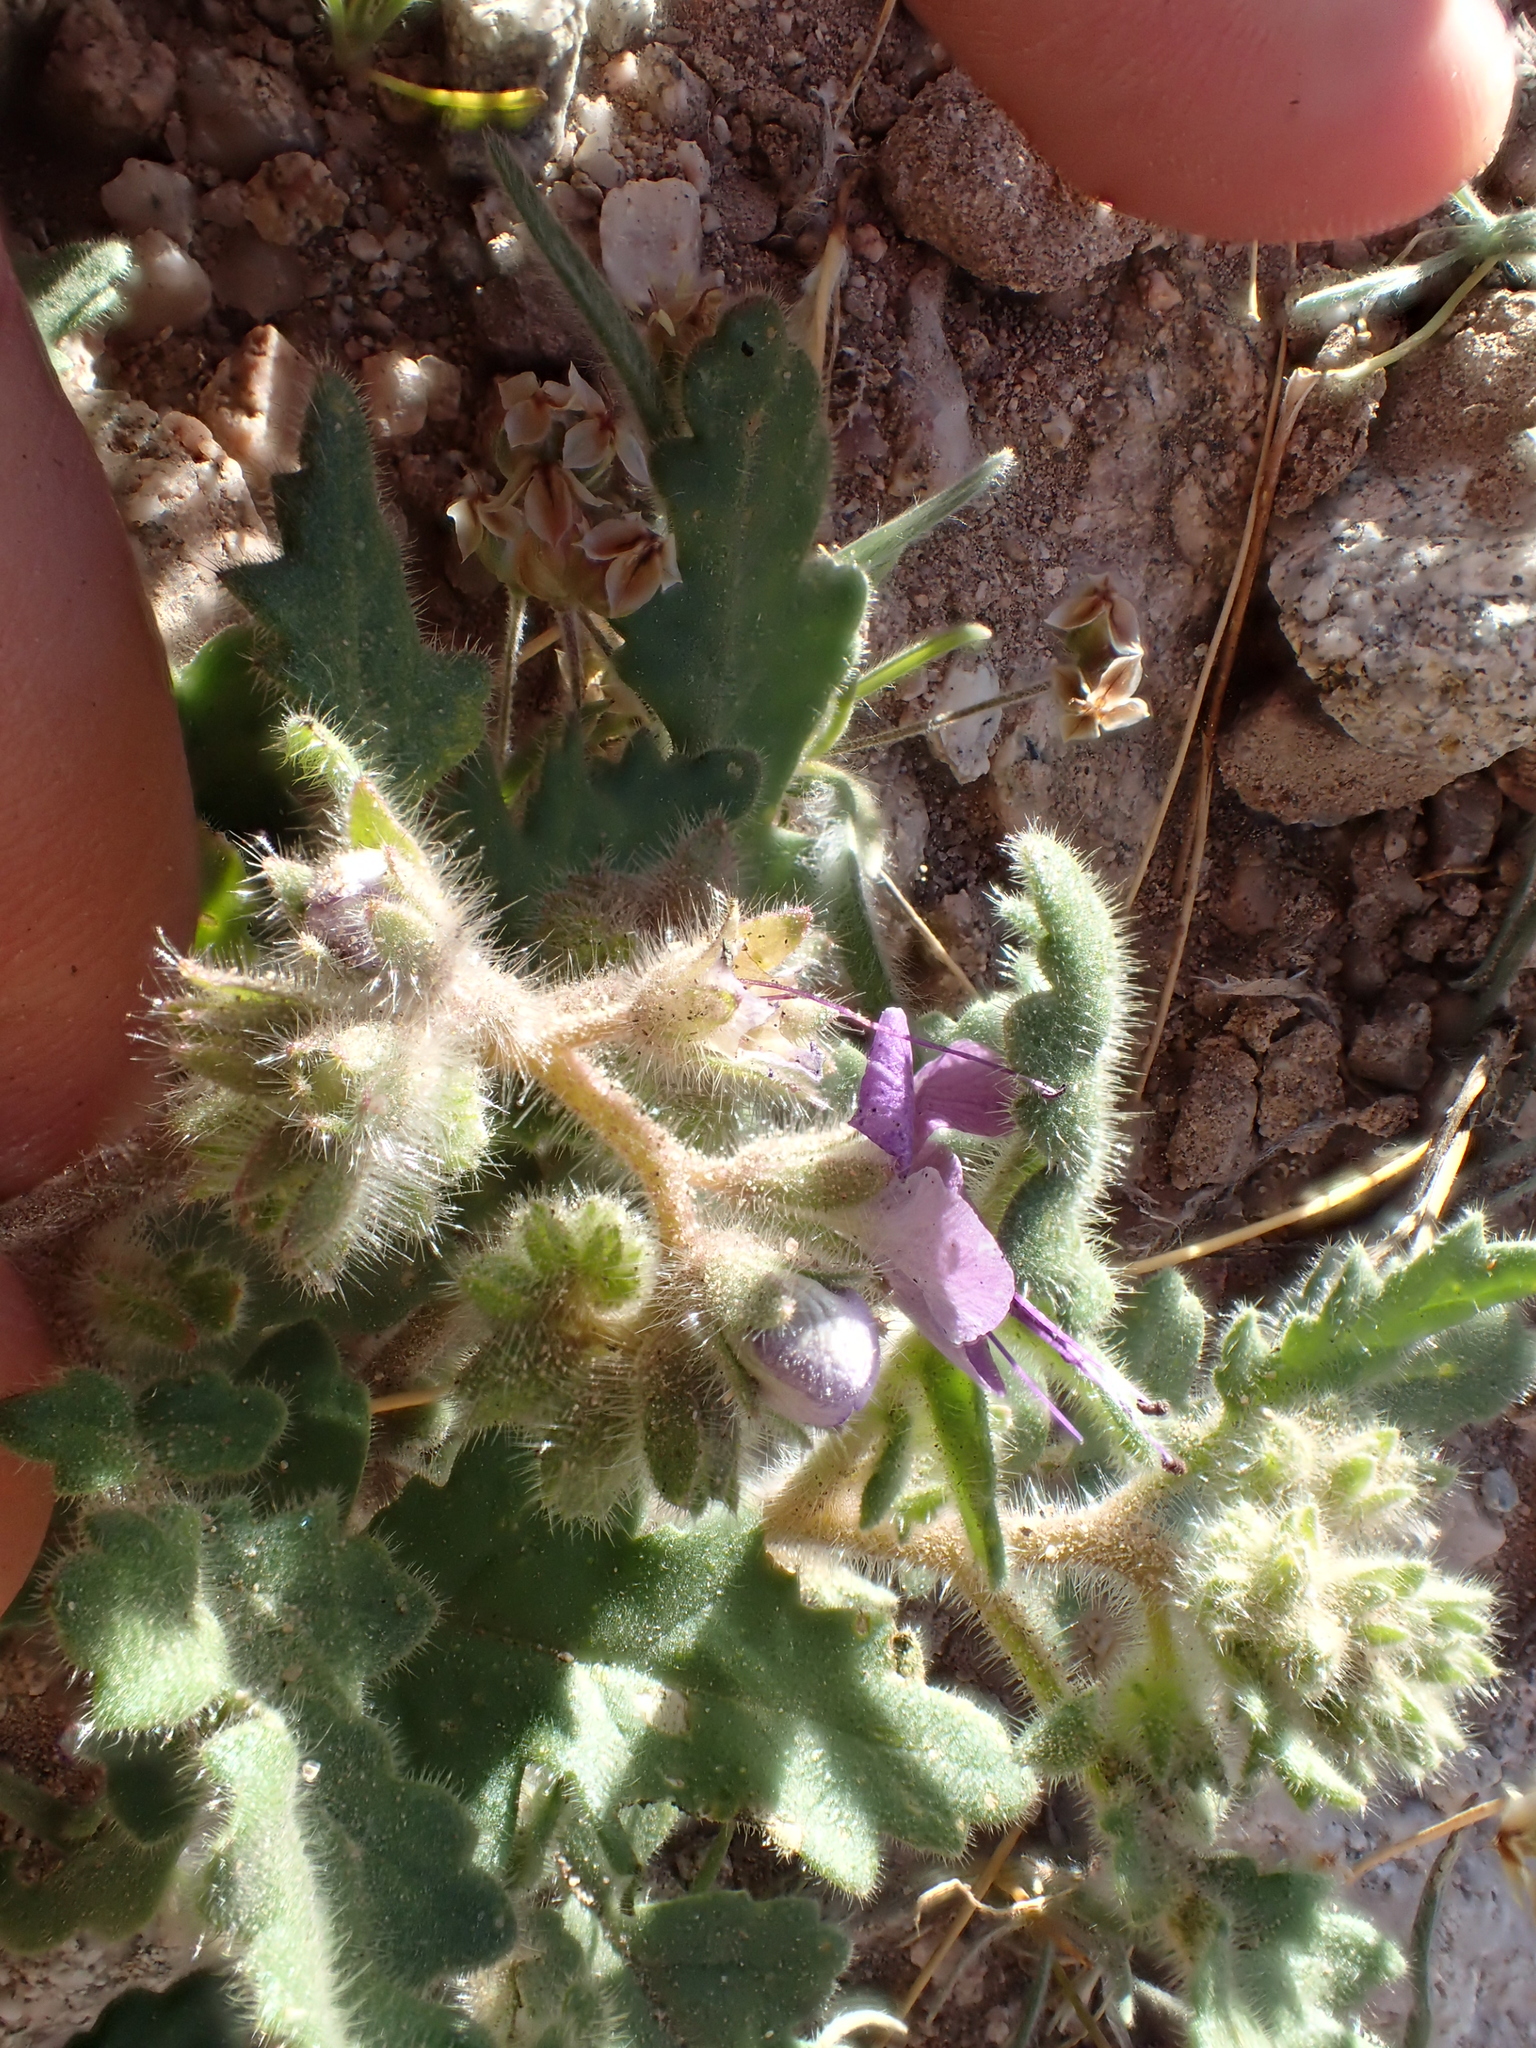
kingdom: Plantae
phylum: Tracheophyta
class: Magnoliopsida
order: Boraginales
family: Hydrophyllaceae
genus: Phacelia
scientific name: Phacelia crenulata
